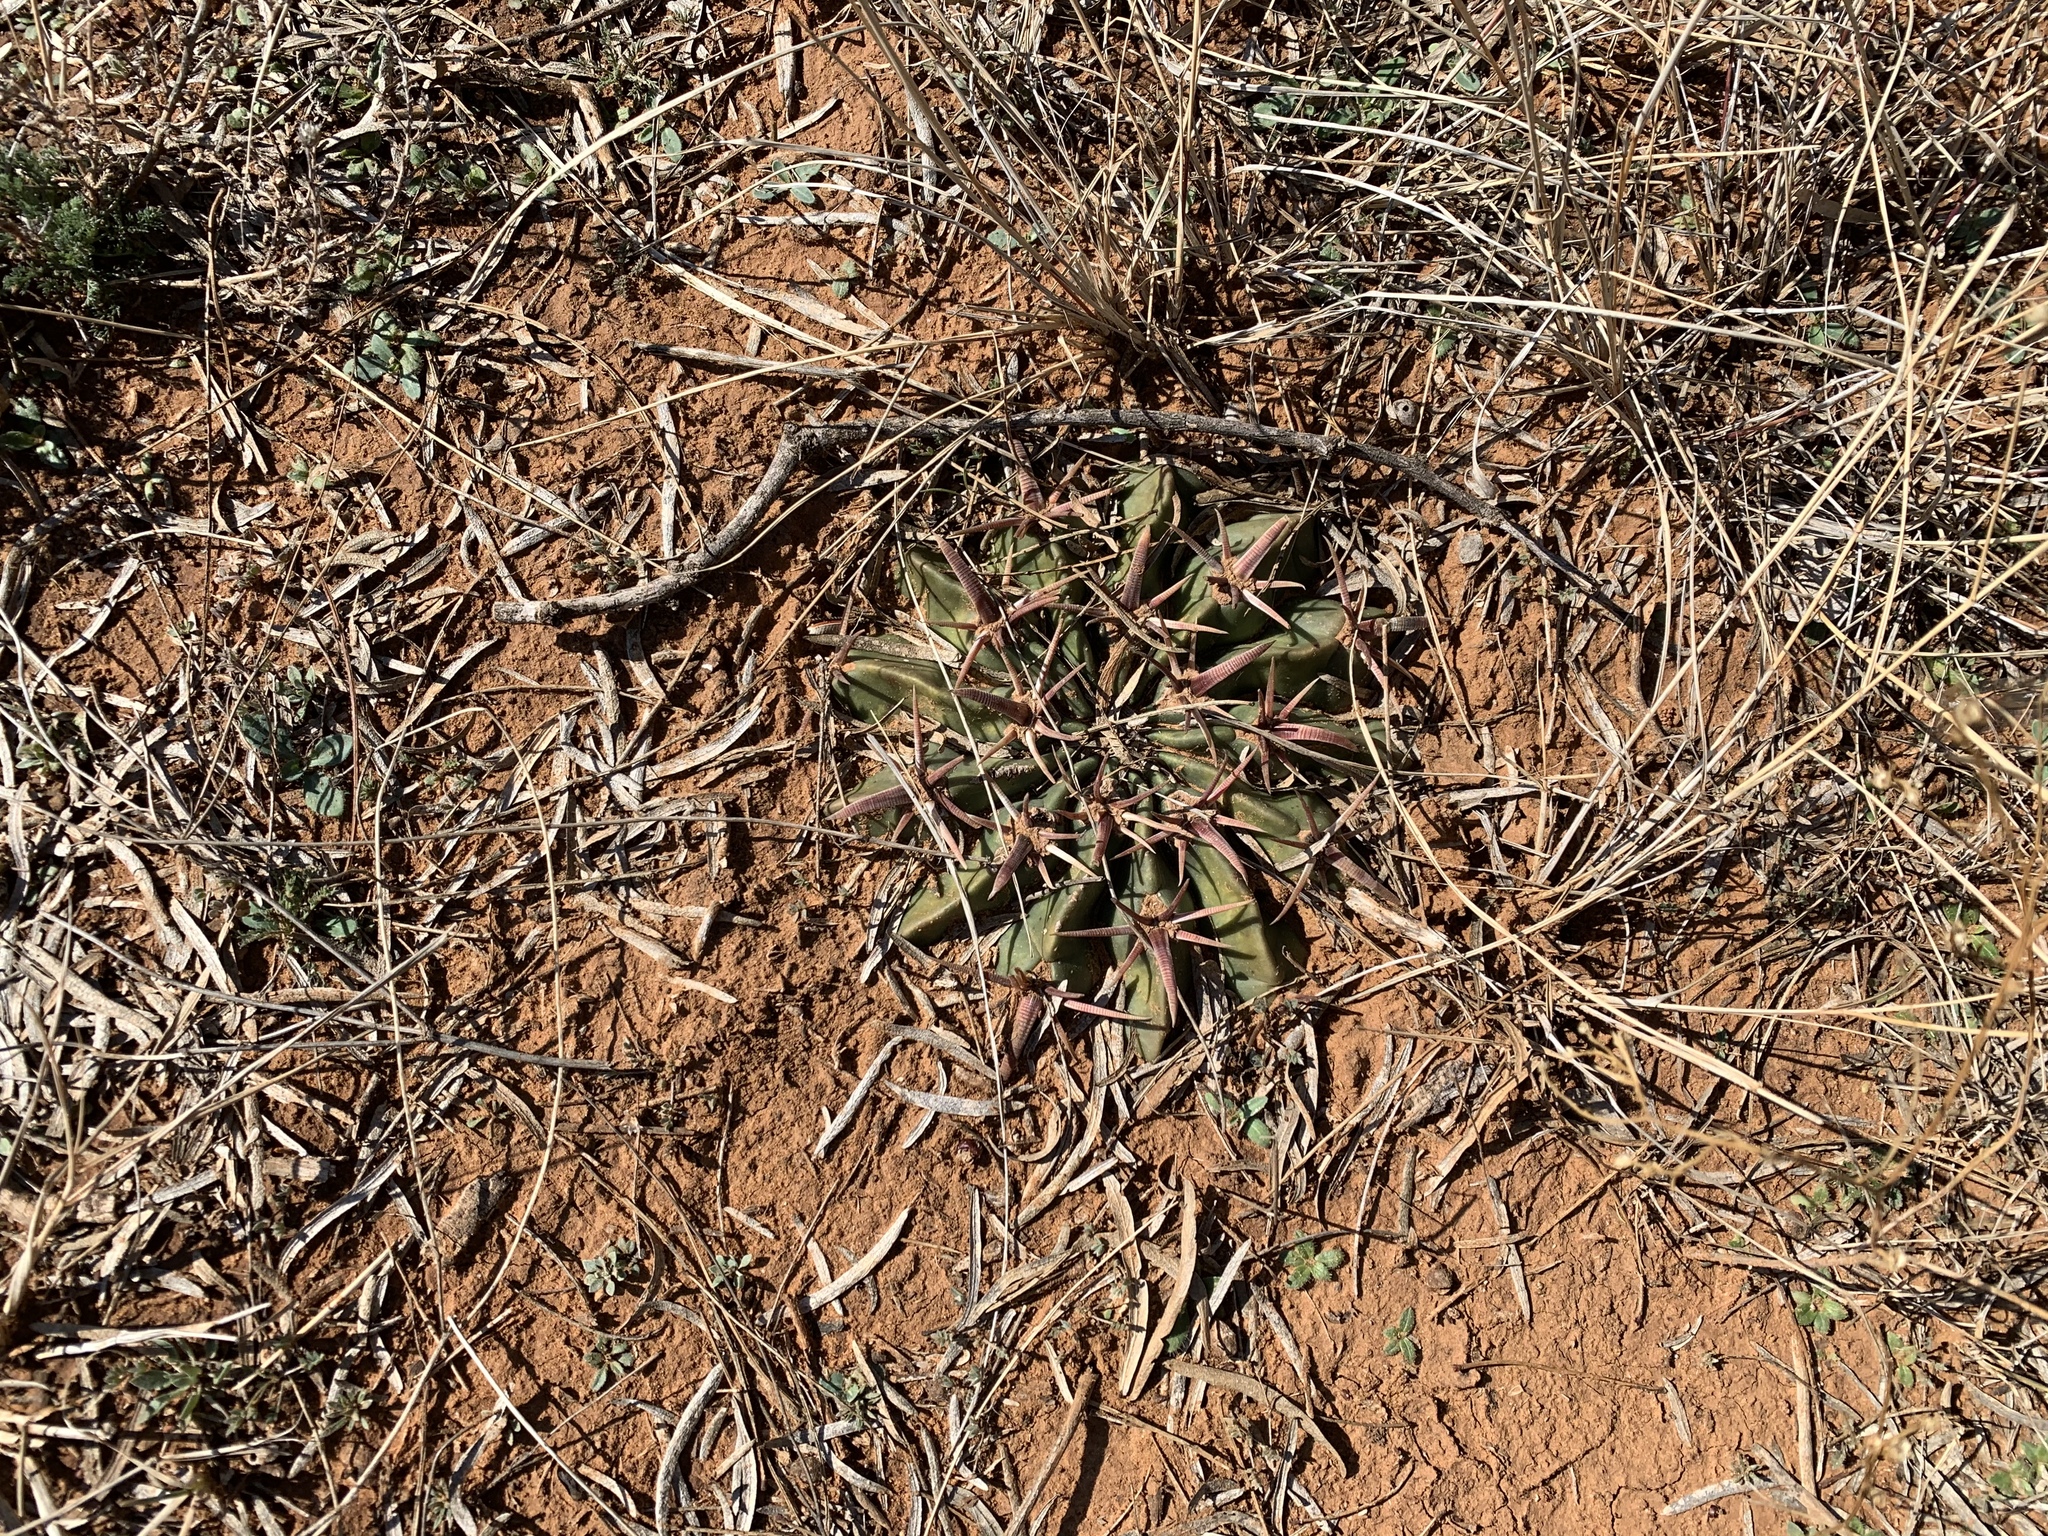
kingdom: Plantae
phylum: Tracheophyta
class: Magnoliopsida
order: Caryophyllales
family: Cactaceae
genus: Echinocactus
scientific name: Echinocactus texensis
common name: Devil's pincushion
